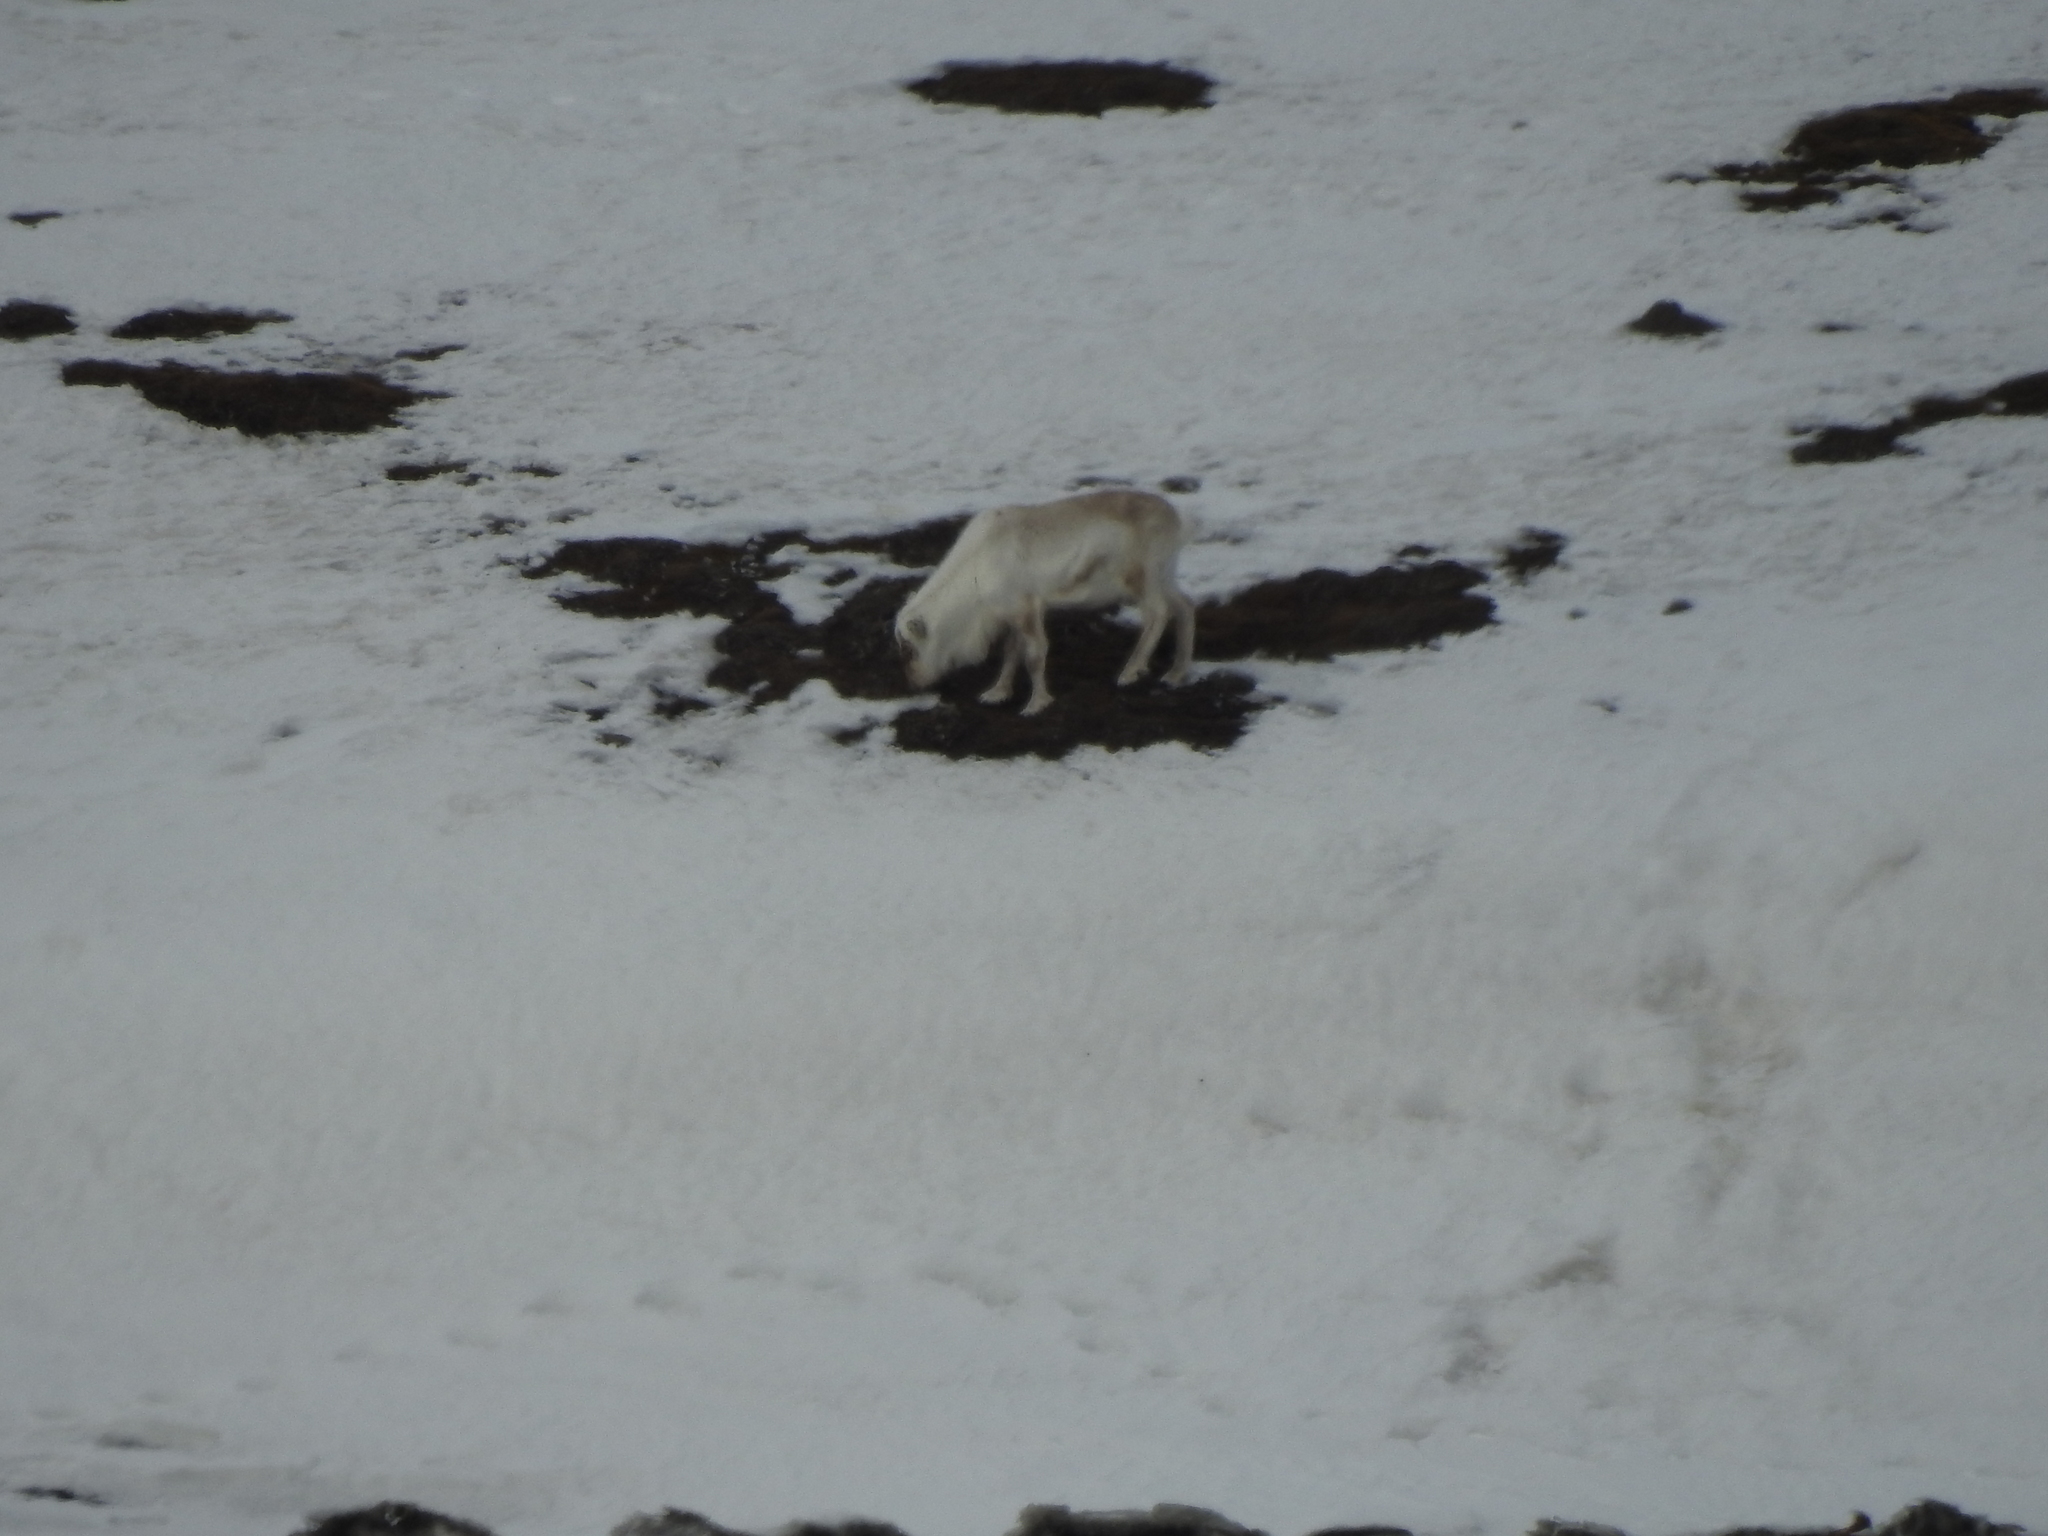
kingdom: Animalia
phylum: Chordata
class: Mammalia
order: Artiodactyla
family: Cervidae
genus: Rangifer
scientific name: Rangifer tarandus
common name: Reindeer
